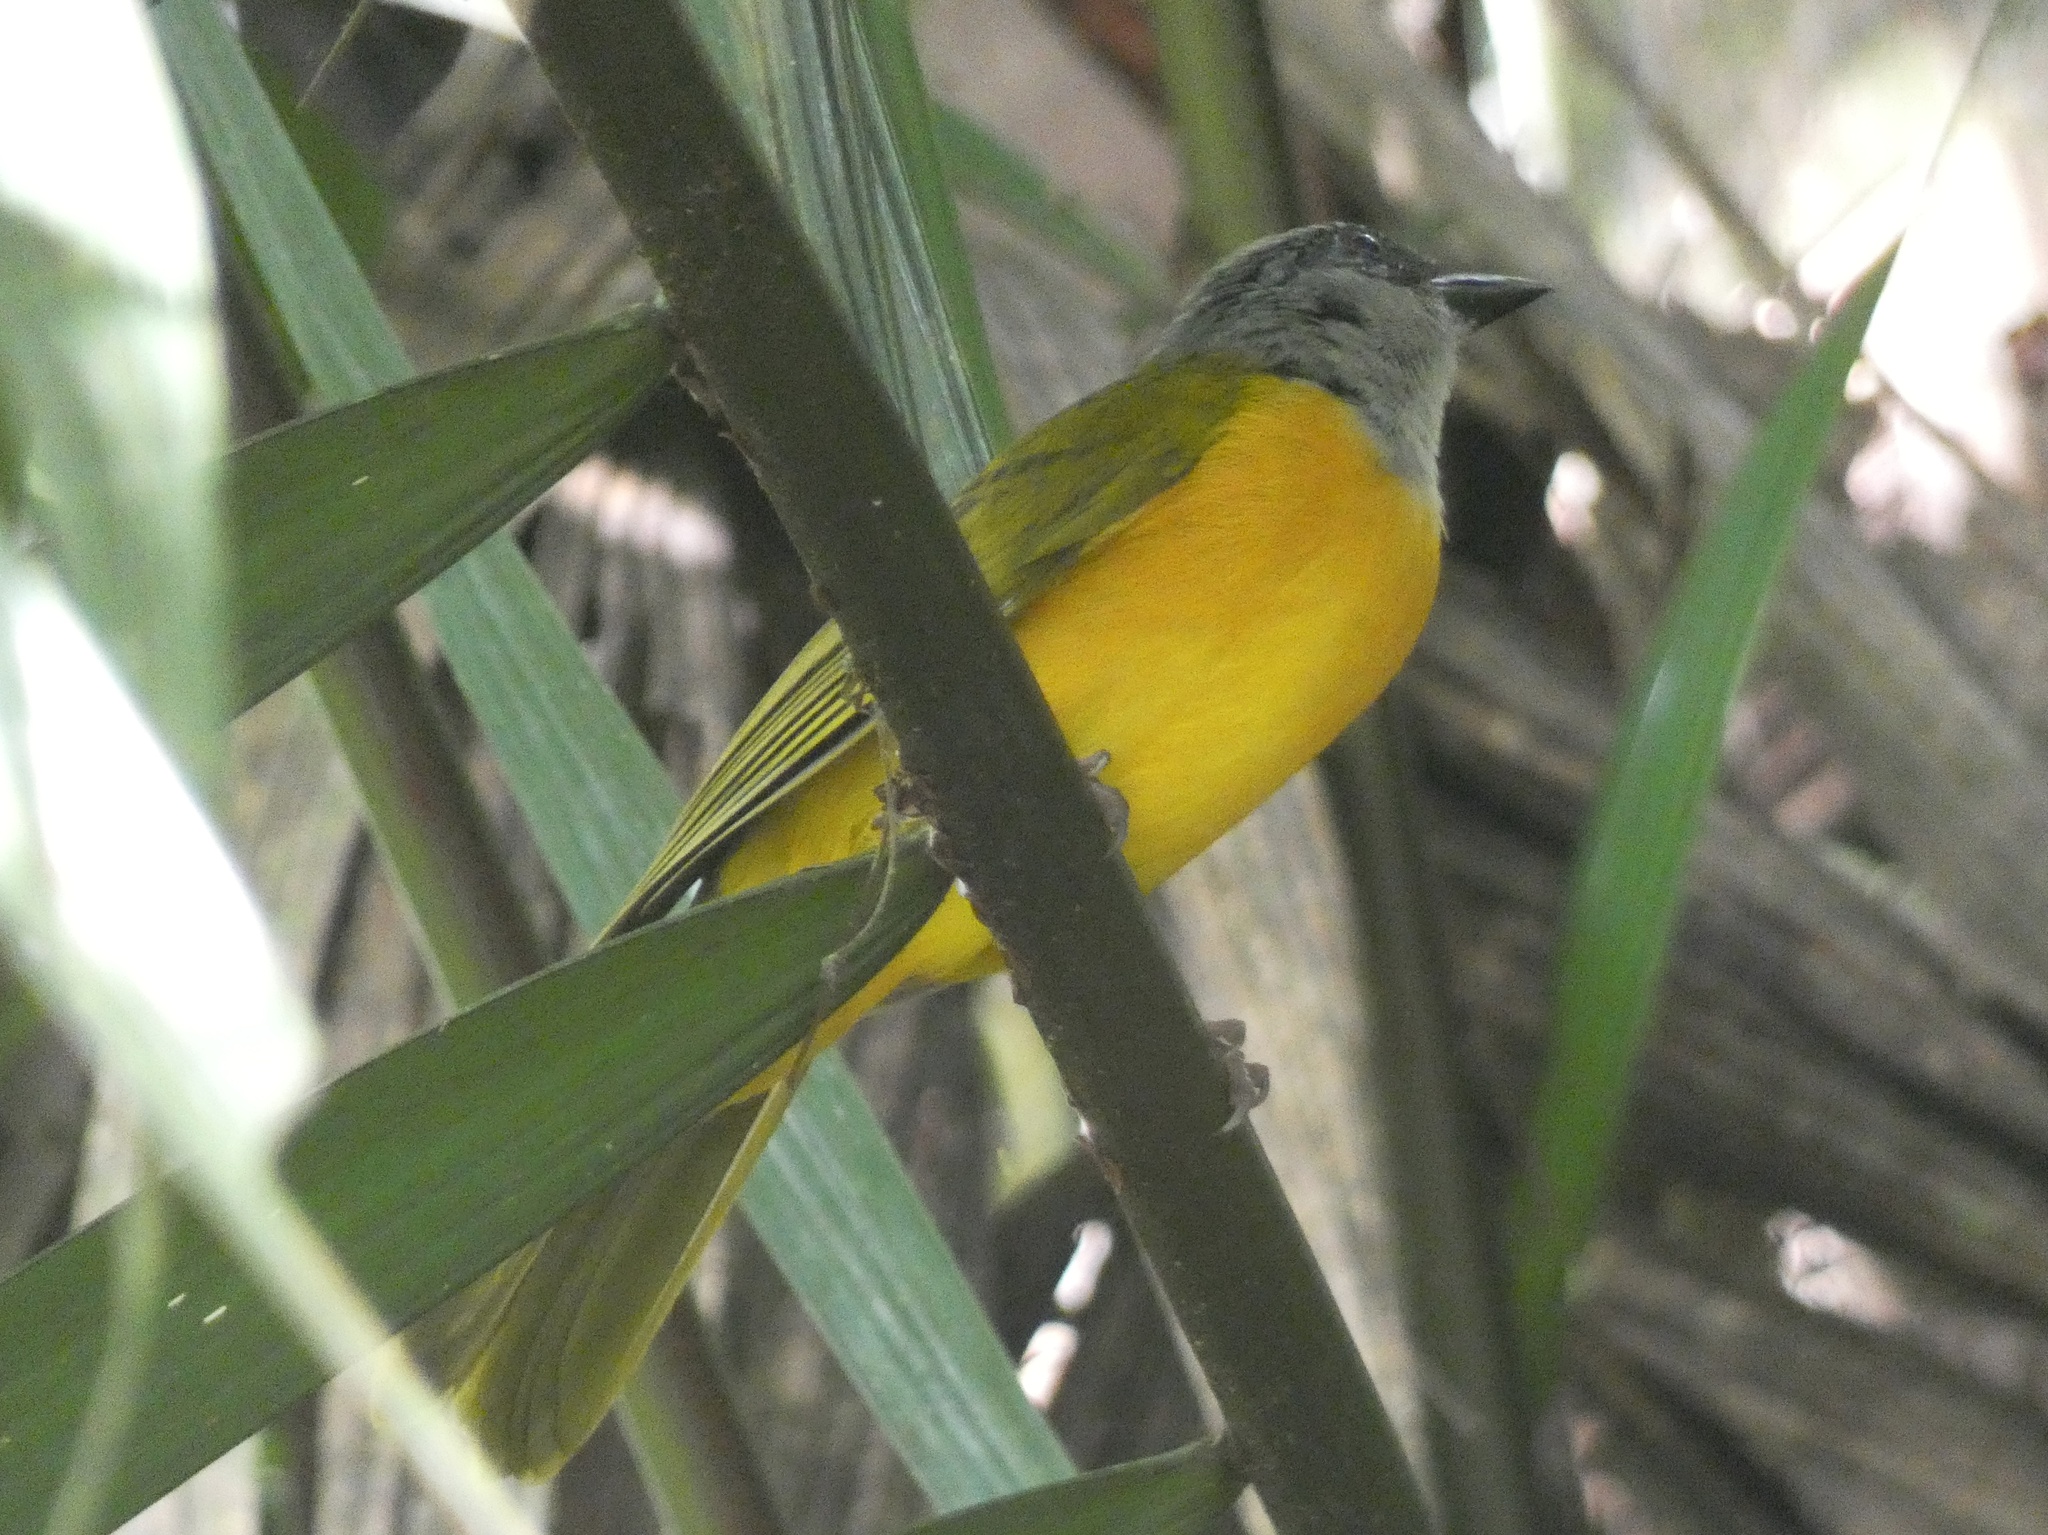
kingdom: Animalia
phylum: Chordata
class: Aves
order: Passeriformes
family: Thraupidae
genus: Eucometis
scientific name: Eucometis penicillata
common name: Grey-headed tanager
